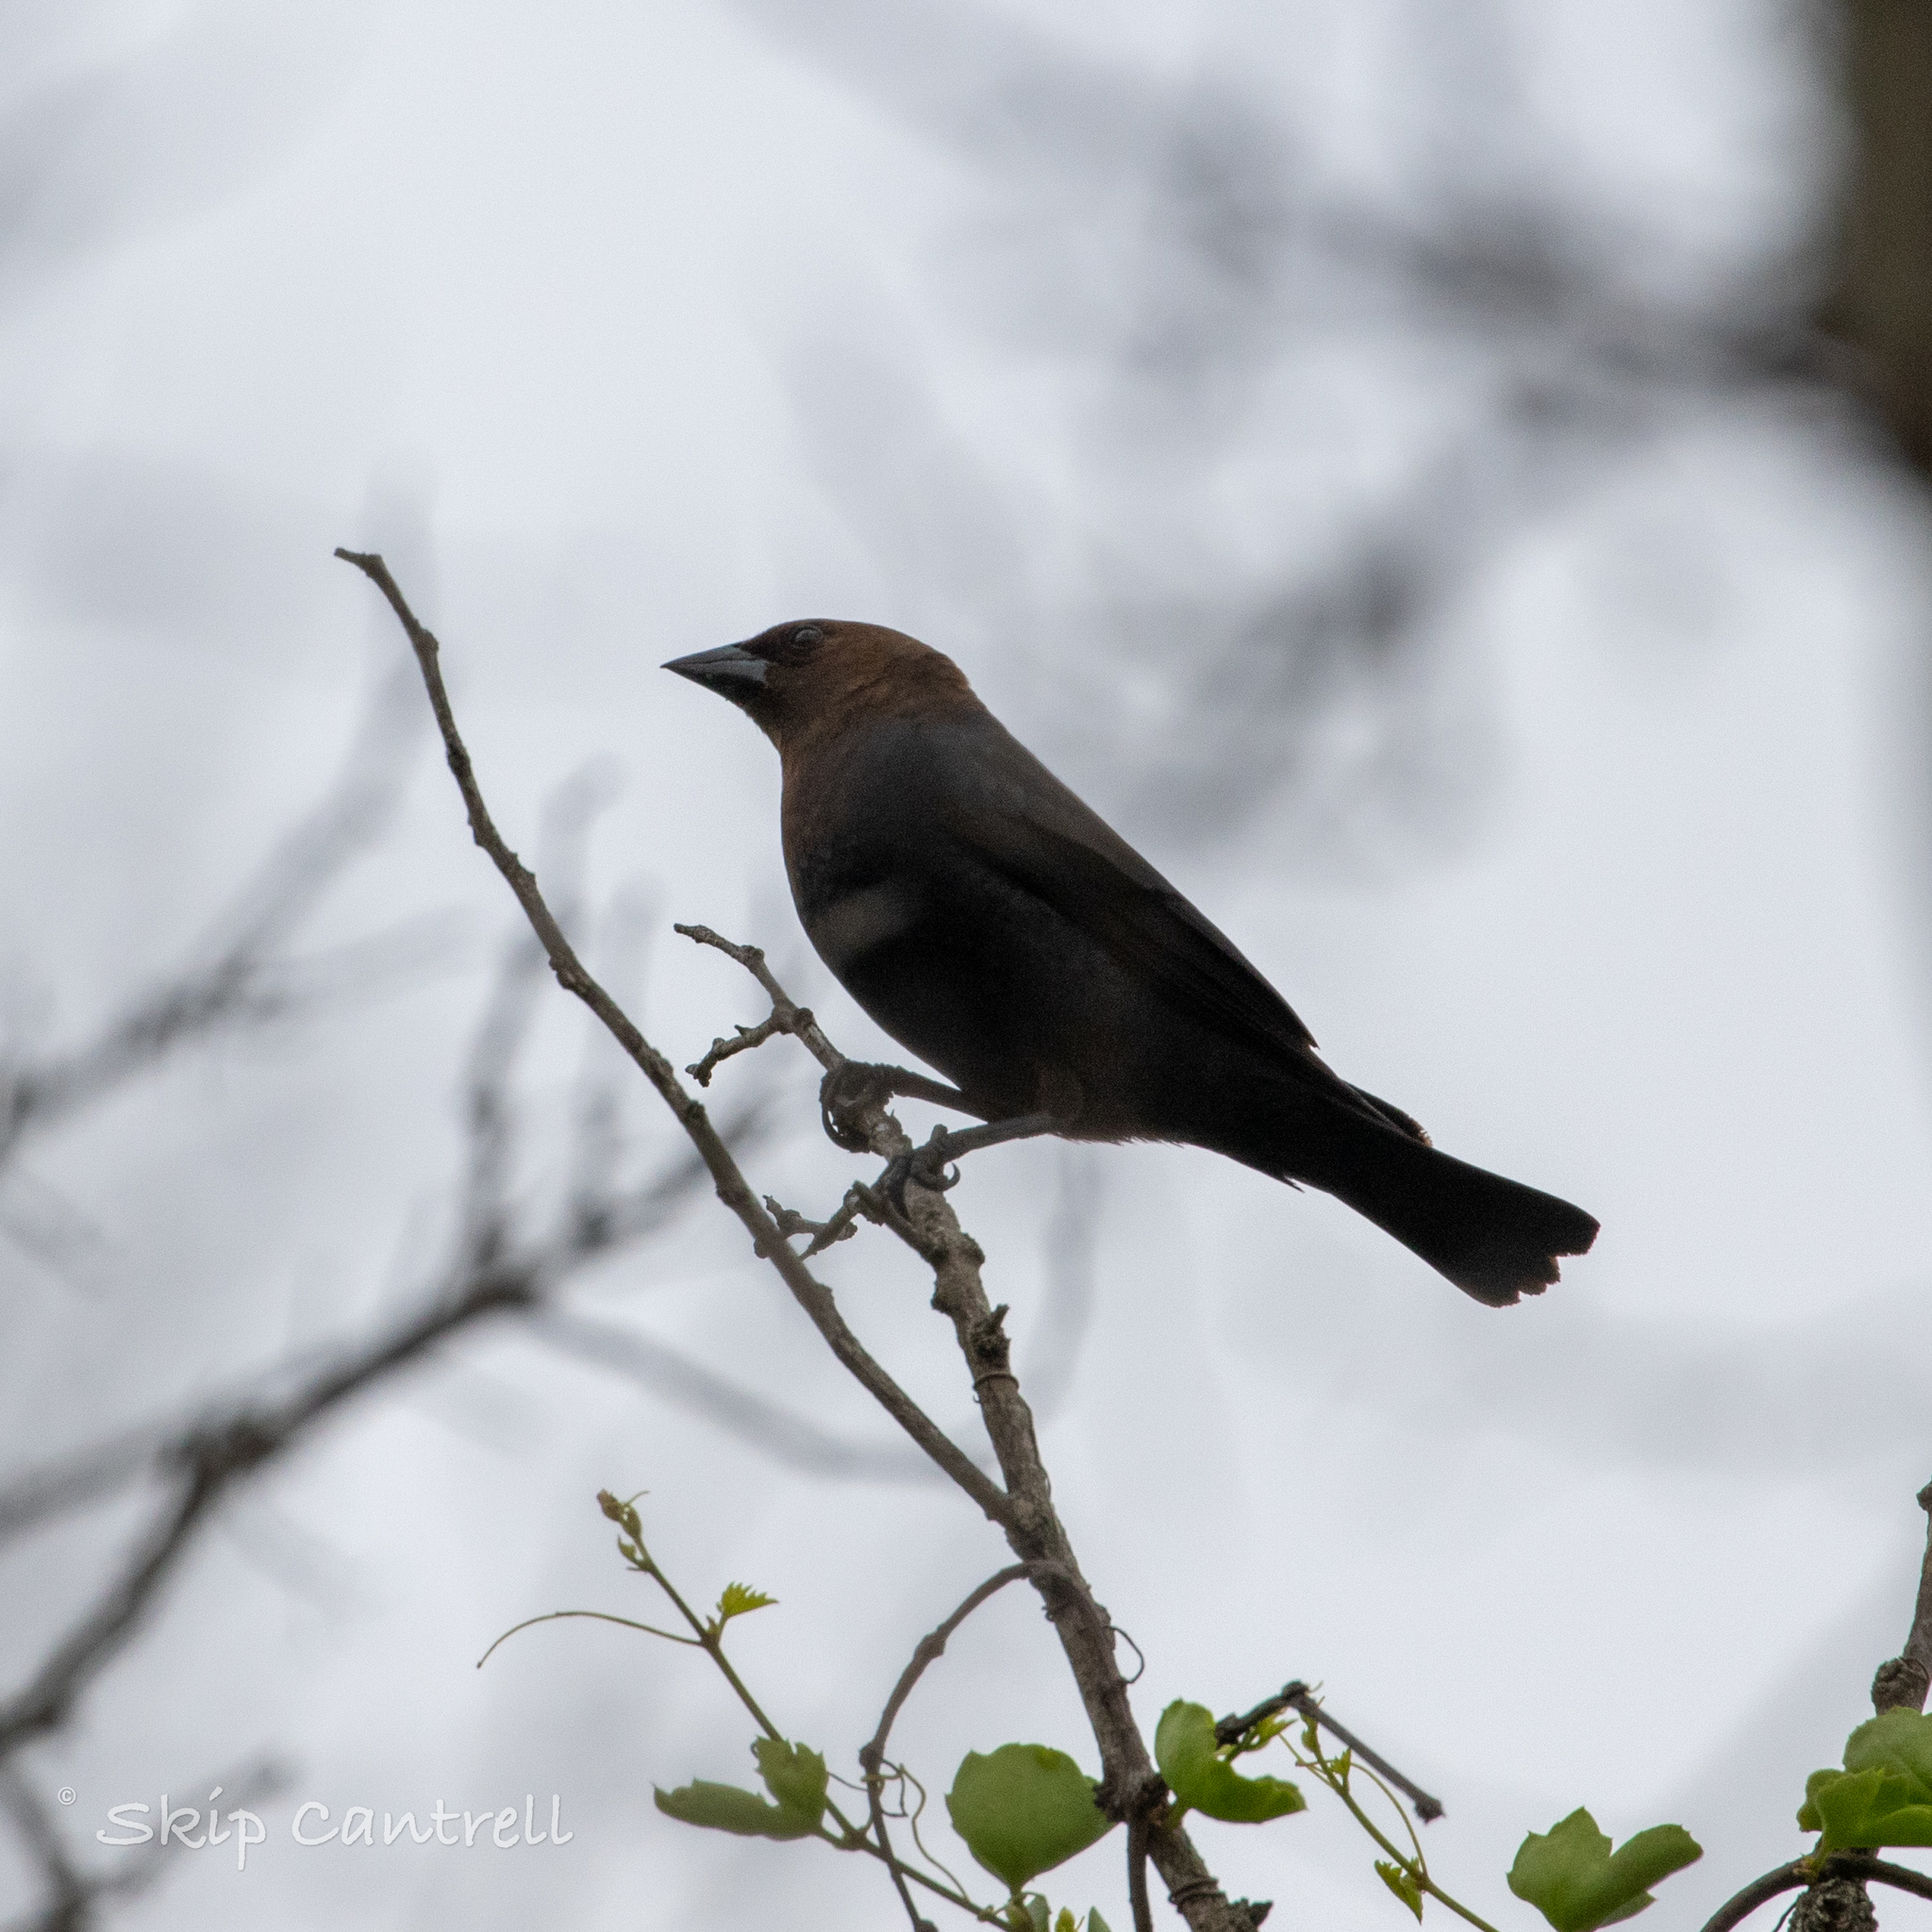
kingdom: Animalia
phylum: Chordata
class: Aves
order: Passeriformes
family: Icteridae
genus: Molothrus
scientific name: Molothrus ater
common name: Brown-headed cowbird
